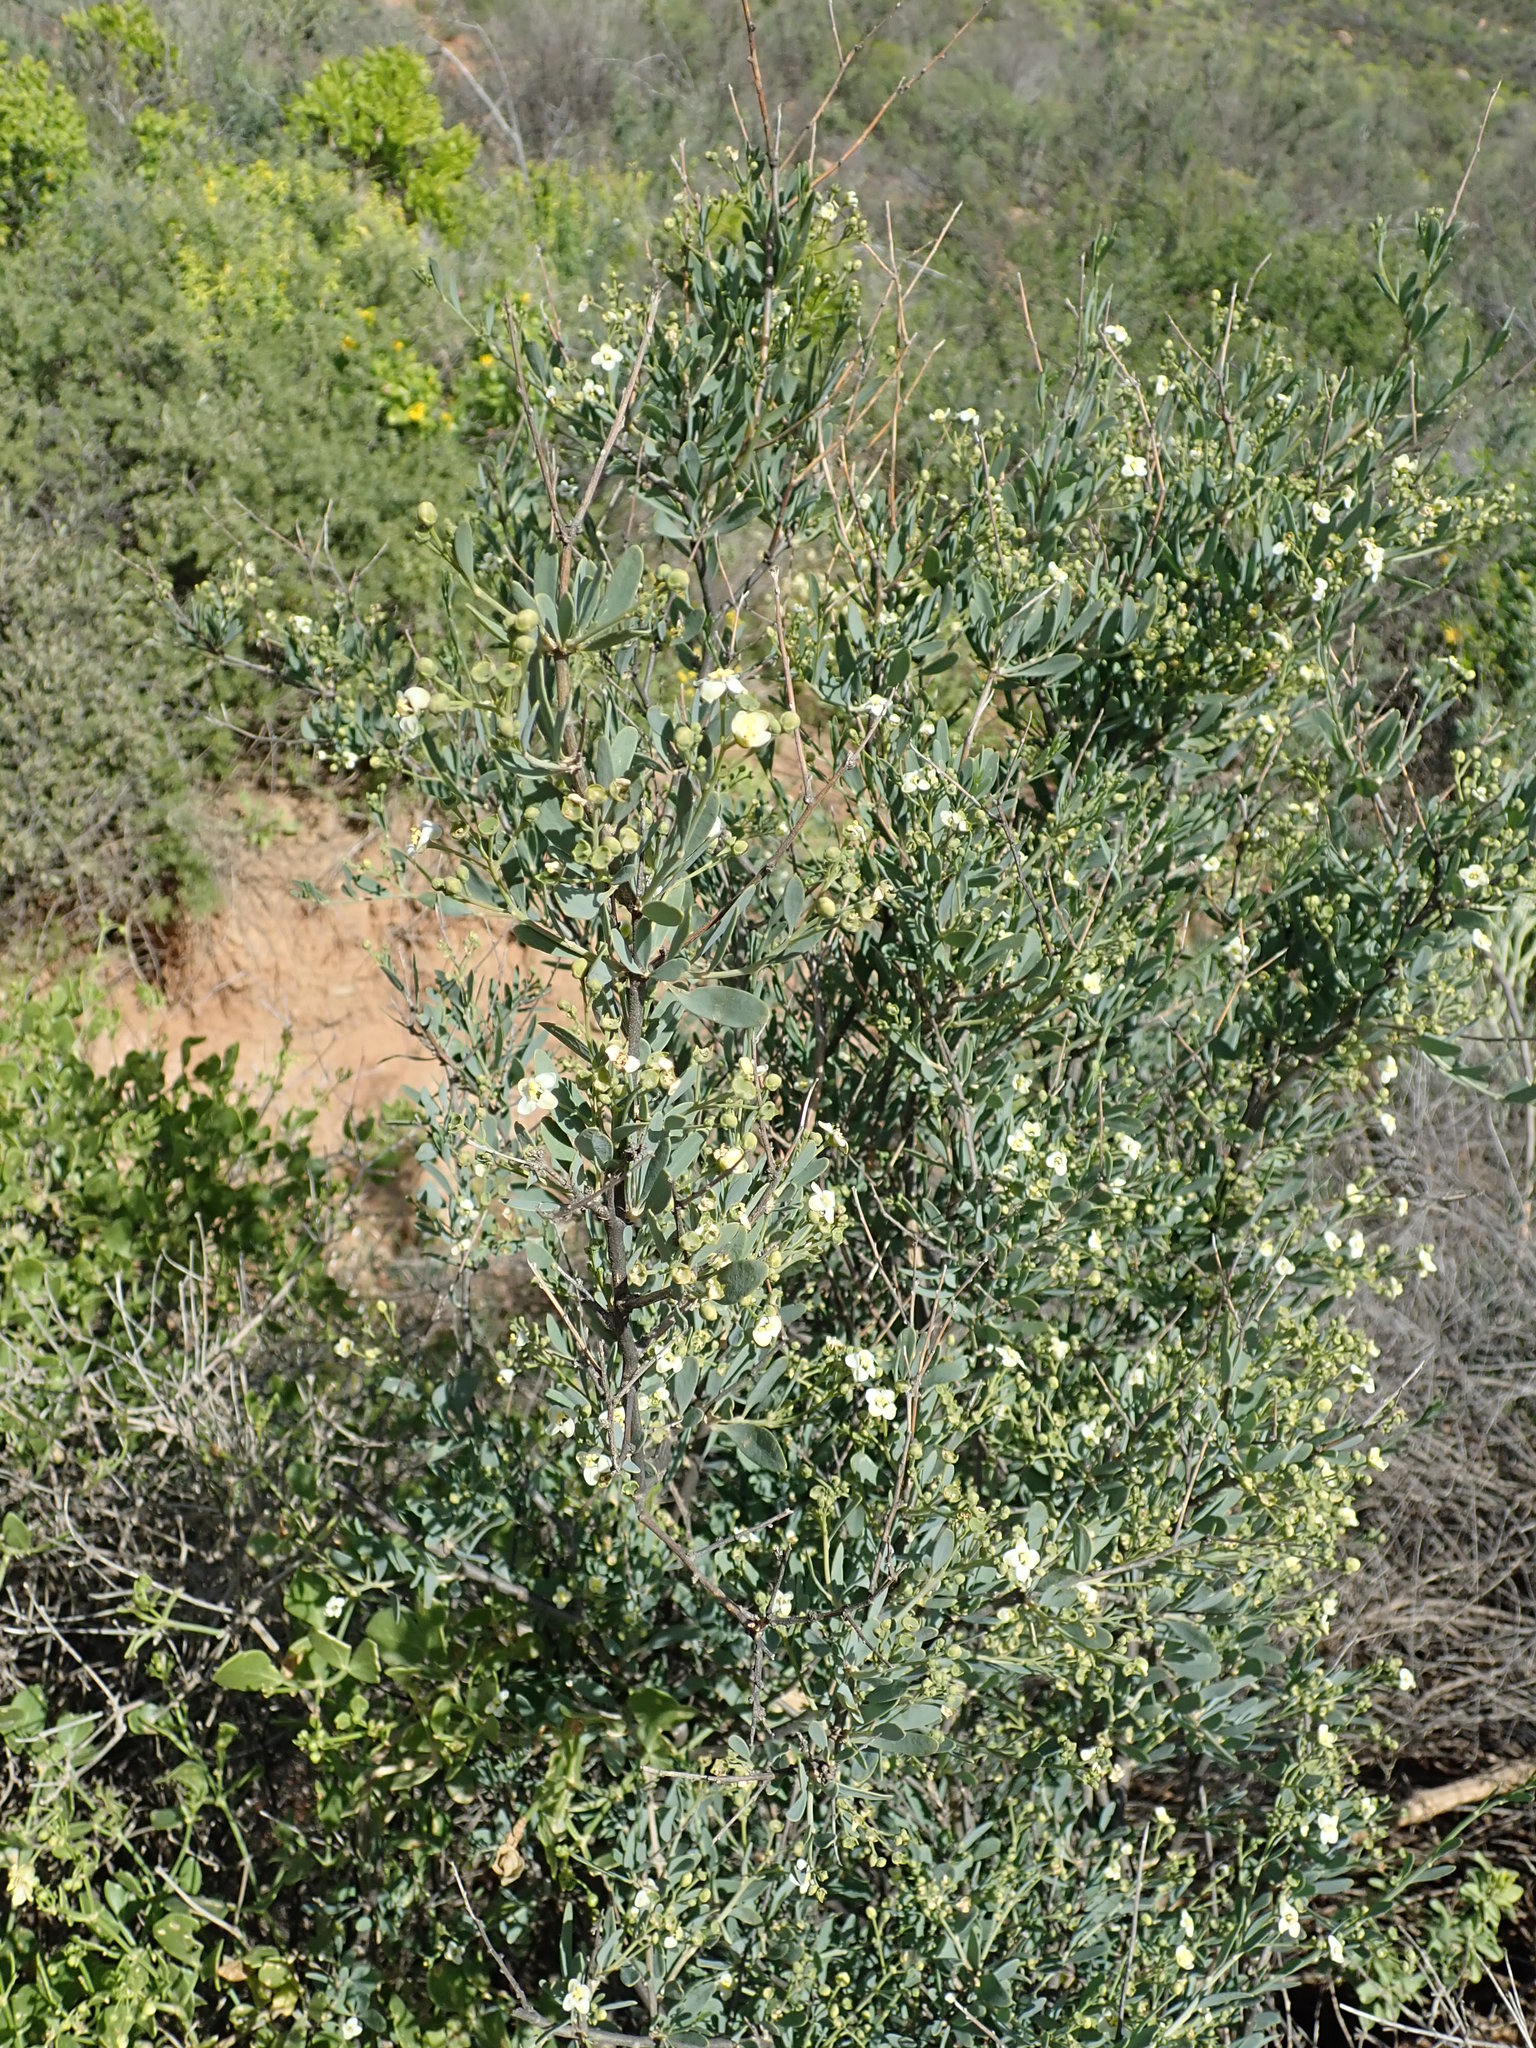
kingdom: Plantae
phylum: Tracheophyta
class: Magnoliopsida
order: Solanales
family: Montiniaceae
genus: Montinia
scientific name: Montinia caryophyllacea
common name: Wild clove-bush
